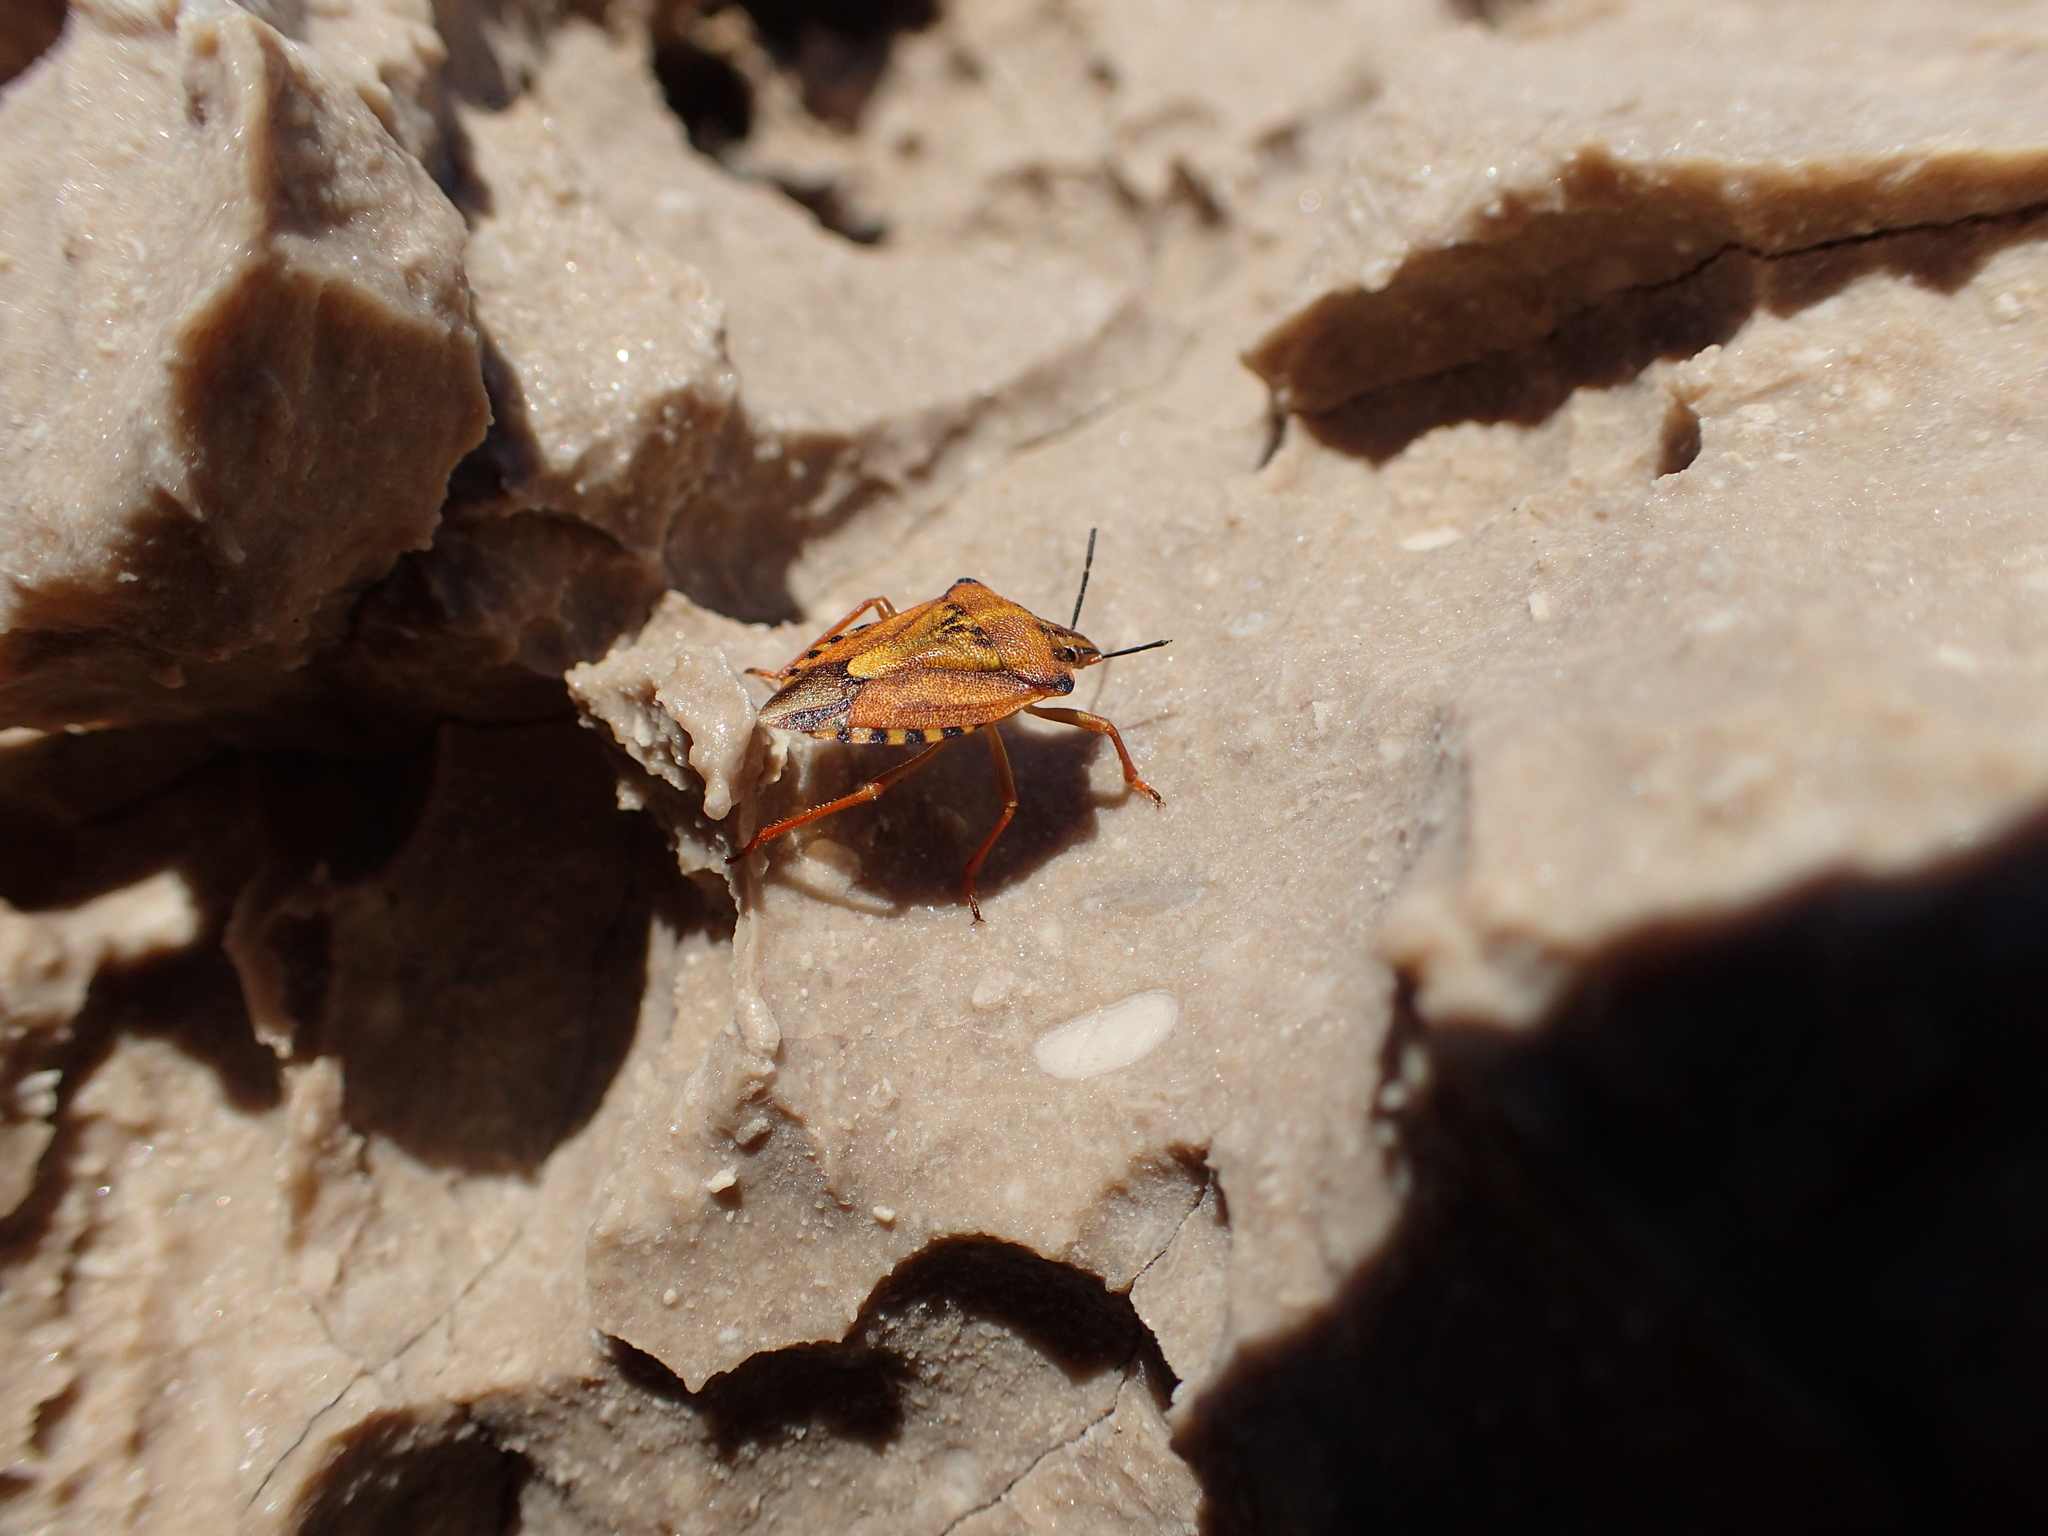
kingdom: Animalia
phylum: Arthropoda
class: Insecta
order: Hemiptera
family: Pentatomidae
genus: Carpocoris
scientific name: Carpocoris mediterraneus
